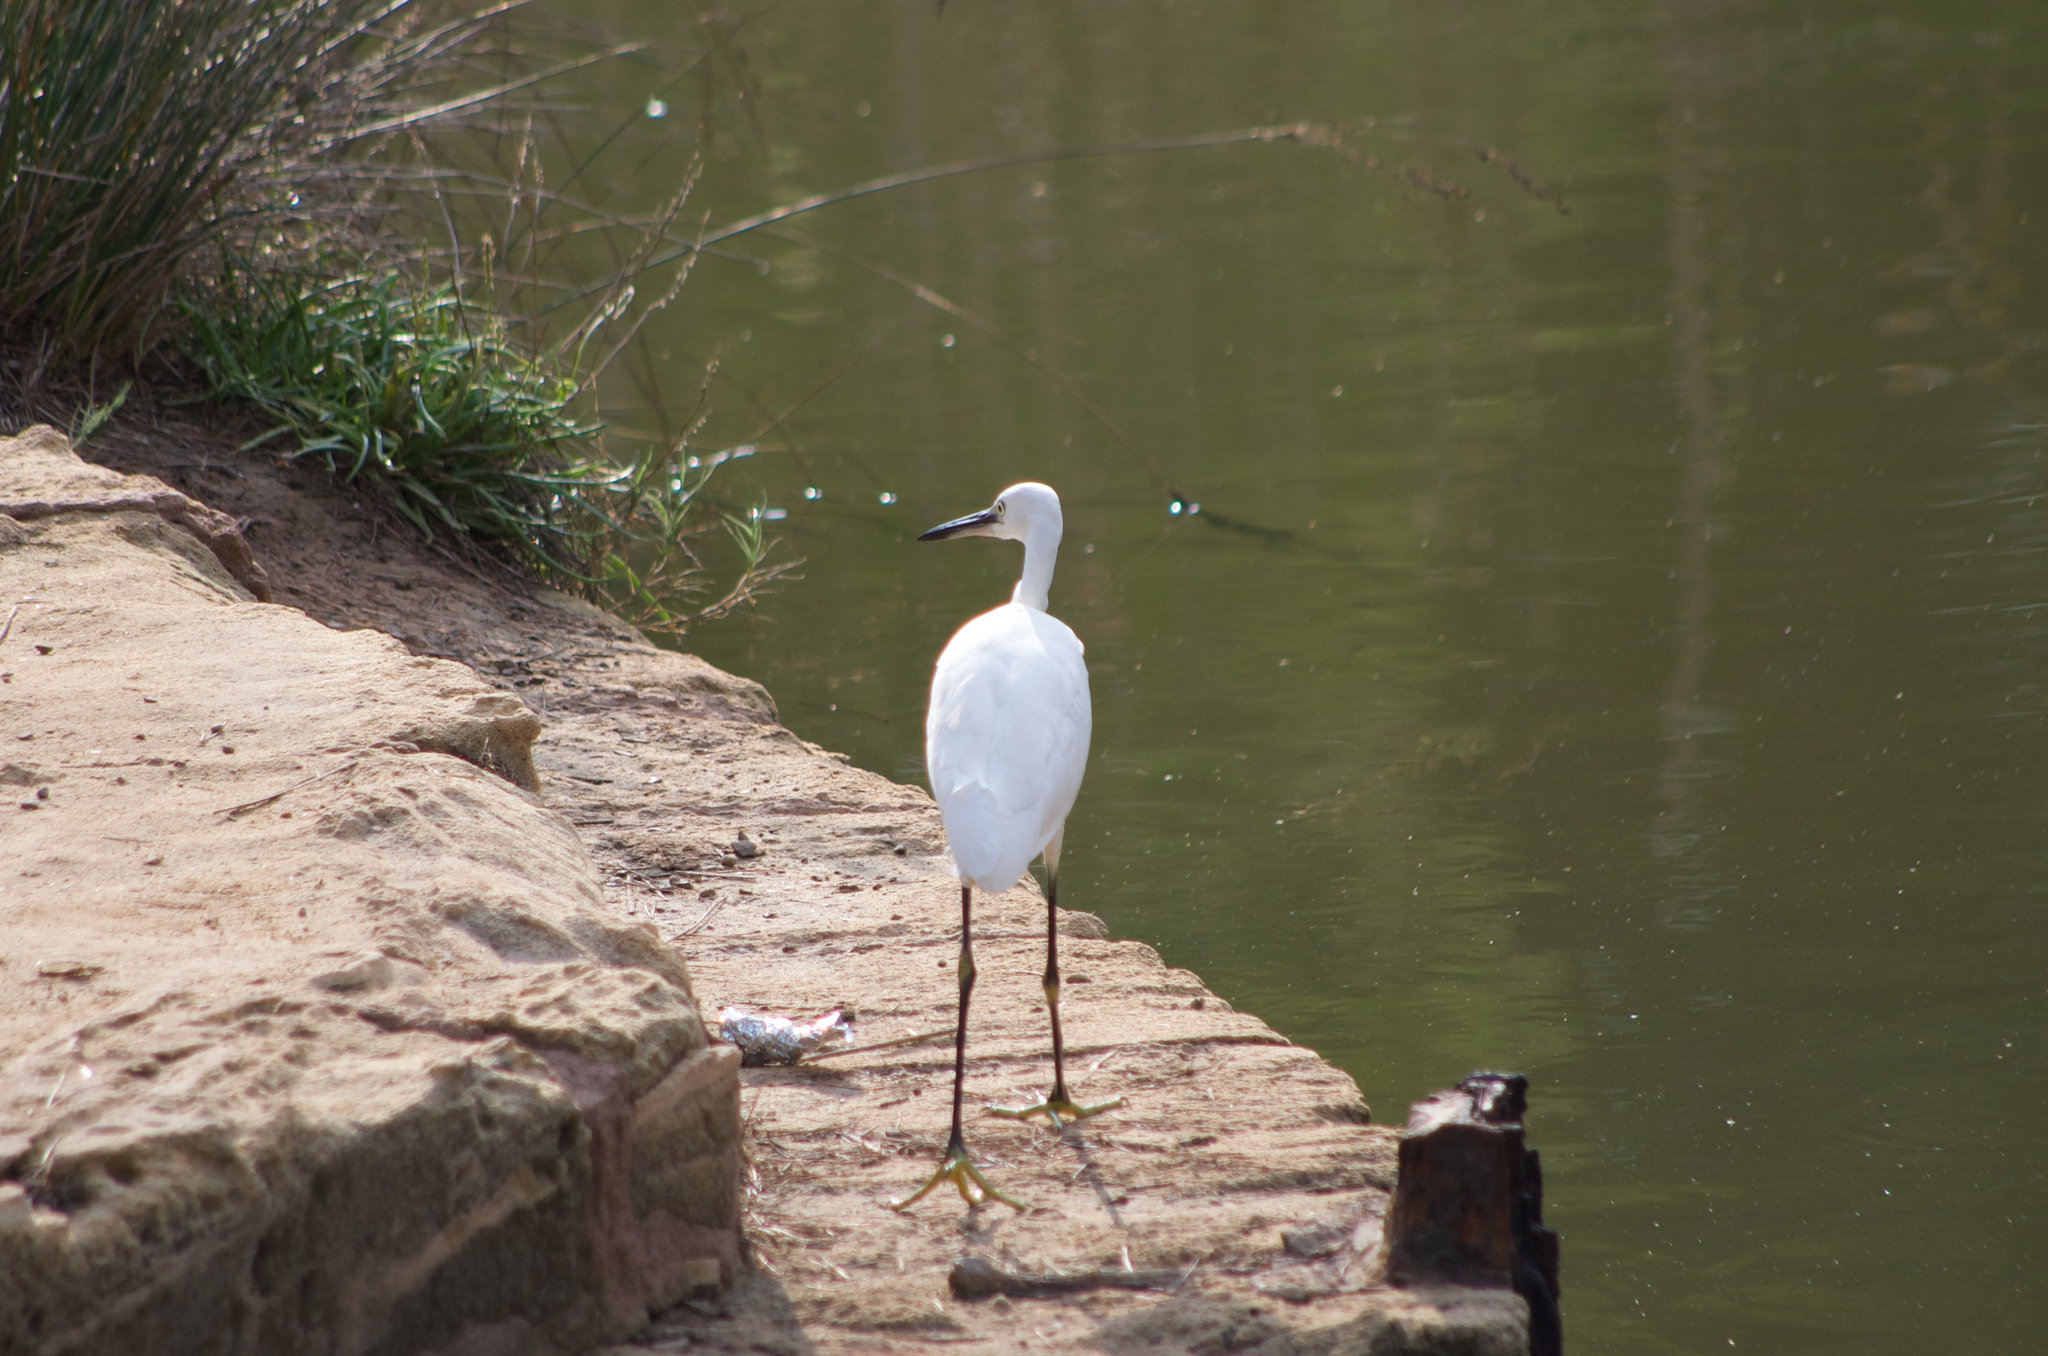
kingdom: Animalia
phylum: Chordata
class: Aves
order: Pelecaniformes
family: Ardeidae
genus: Egretta
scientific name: Egretta garzetta
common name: Little egret
